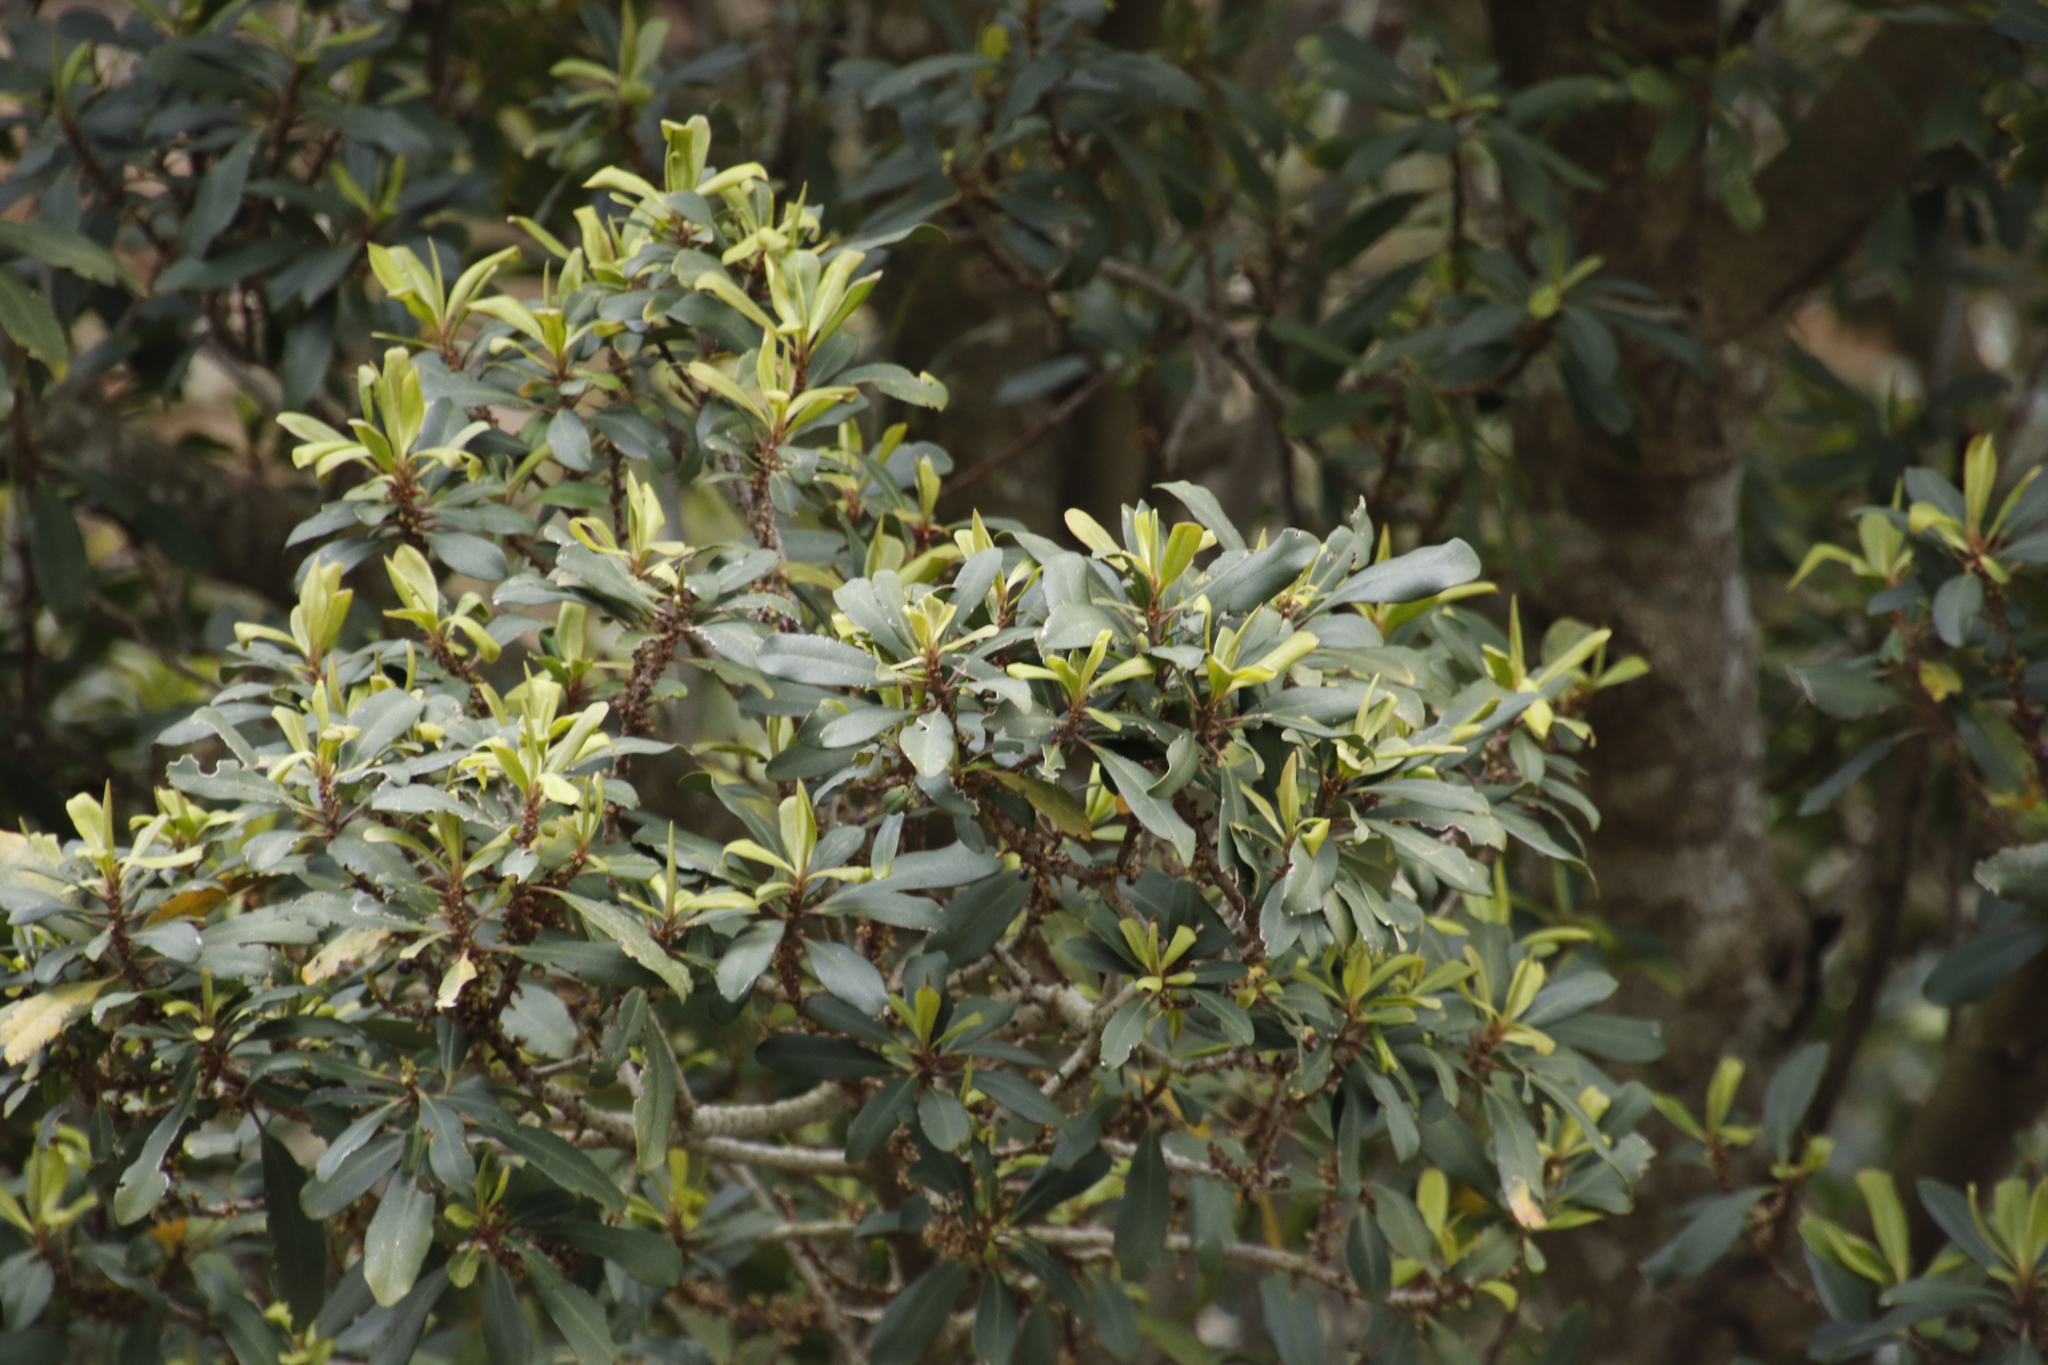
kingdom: Plantae
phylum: Tracheophyta
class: Magnoliopsida
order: Ericales
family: Primulaceae
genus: Myrsine
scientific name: Myrsine melanophloeos
